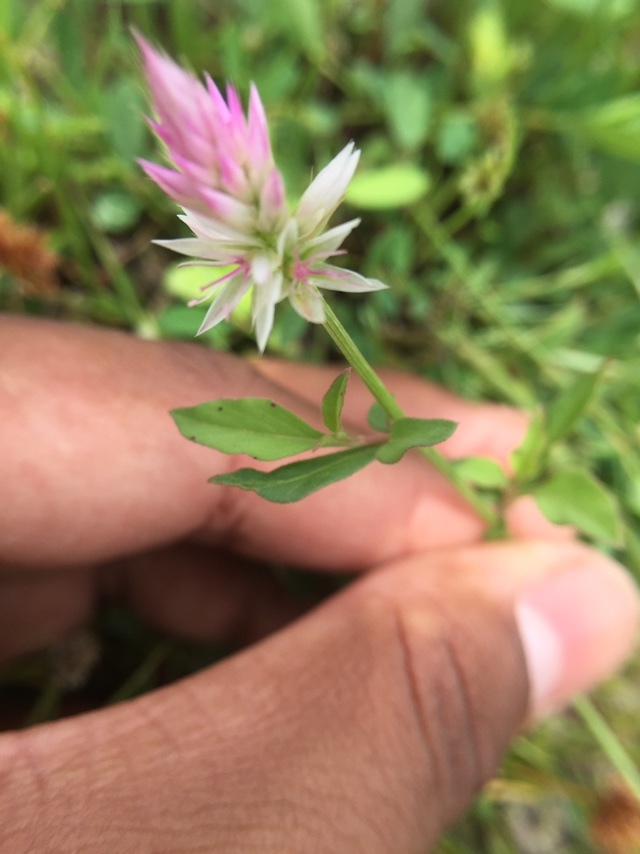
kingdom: Plantae
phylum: Tracheophyta
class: Magnoliopsida
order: Caryophyllales
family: Amaranthaceae
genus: Celosia
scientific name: Celosia argentea
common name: Feather cockscomb
